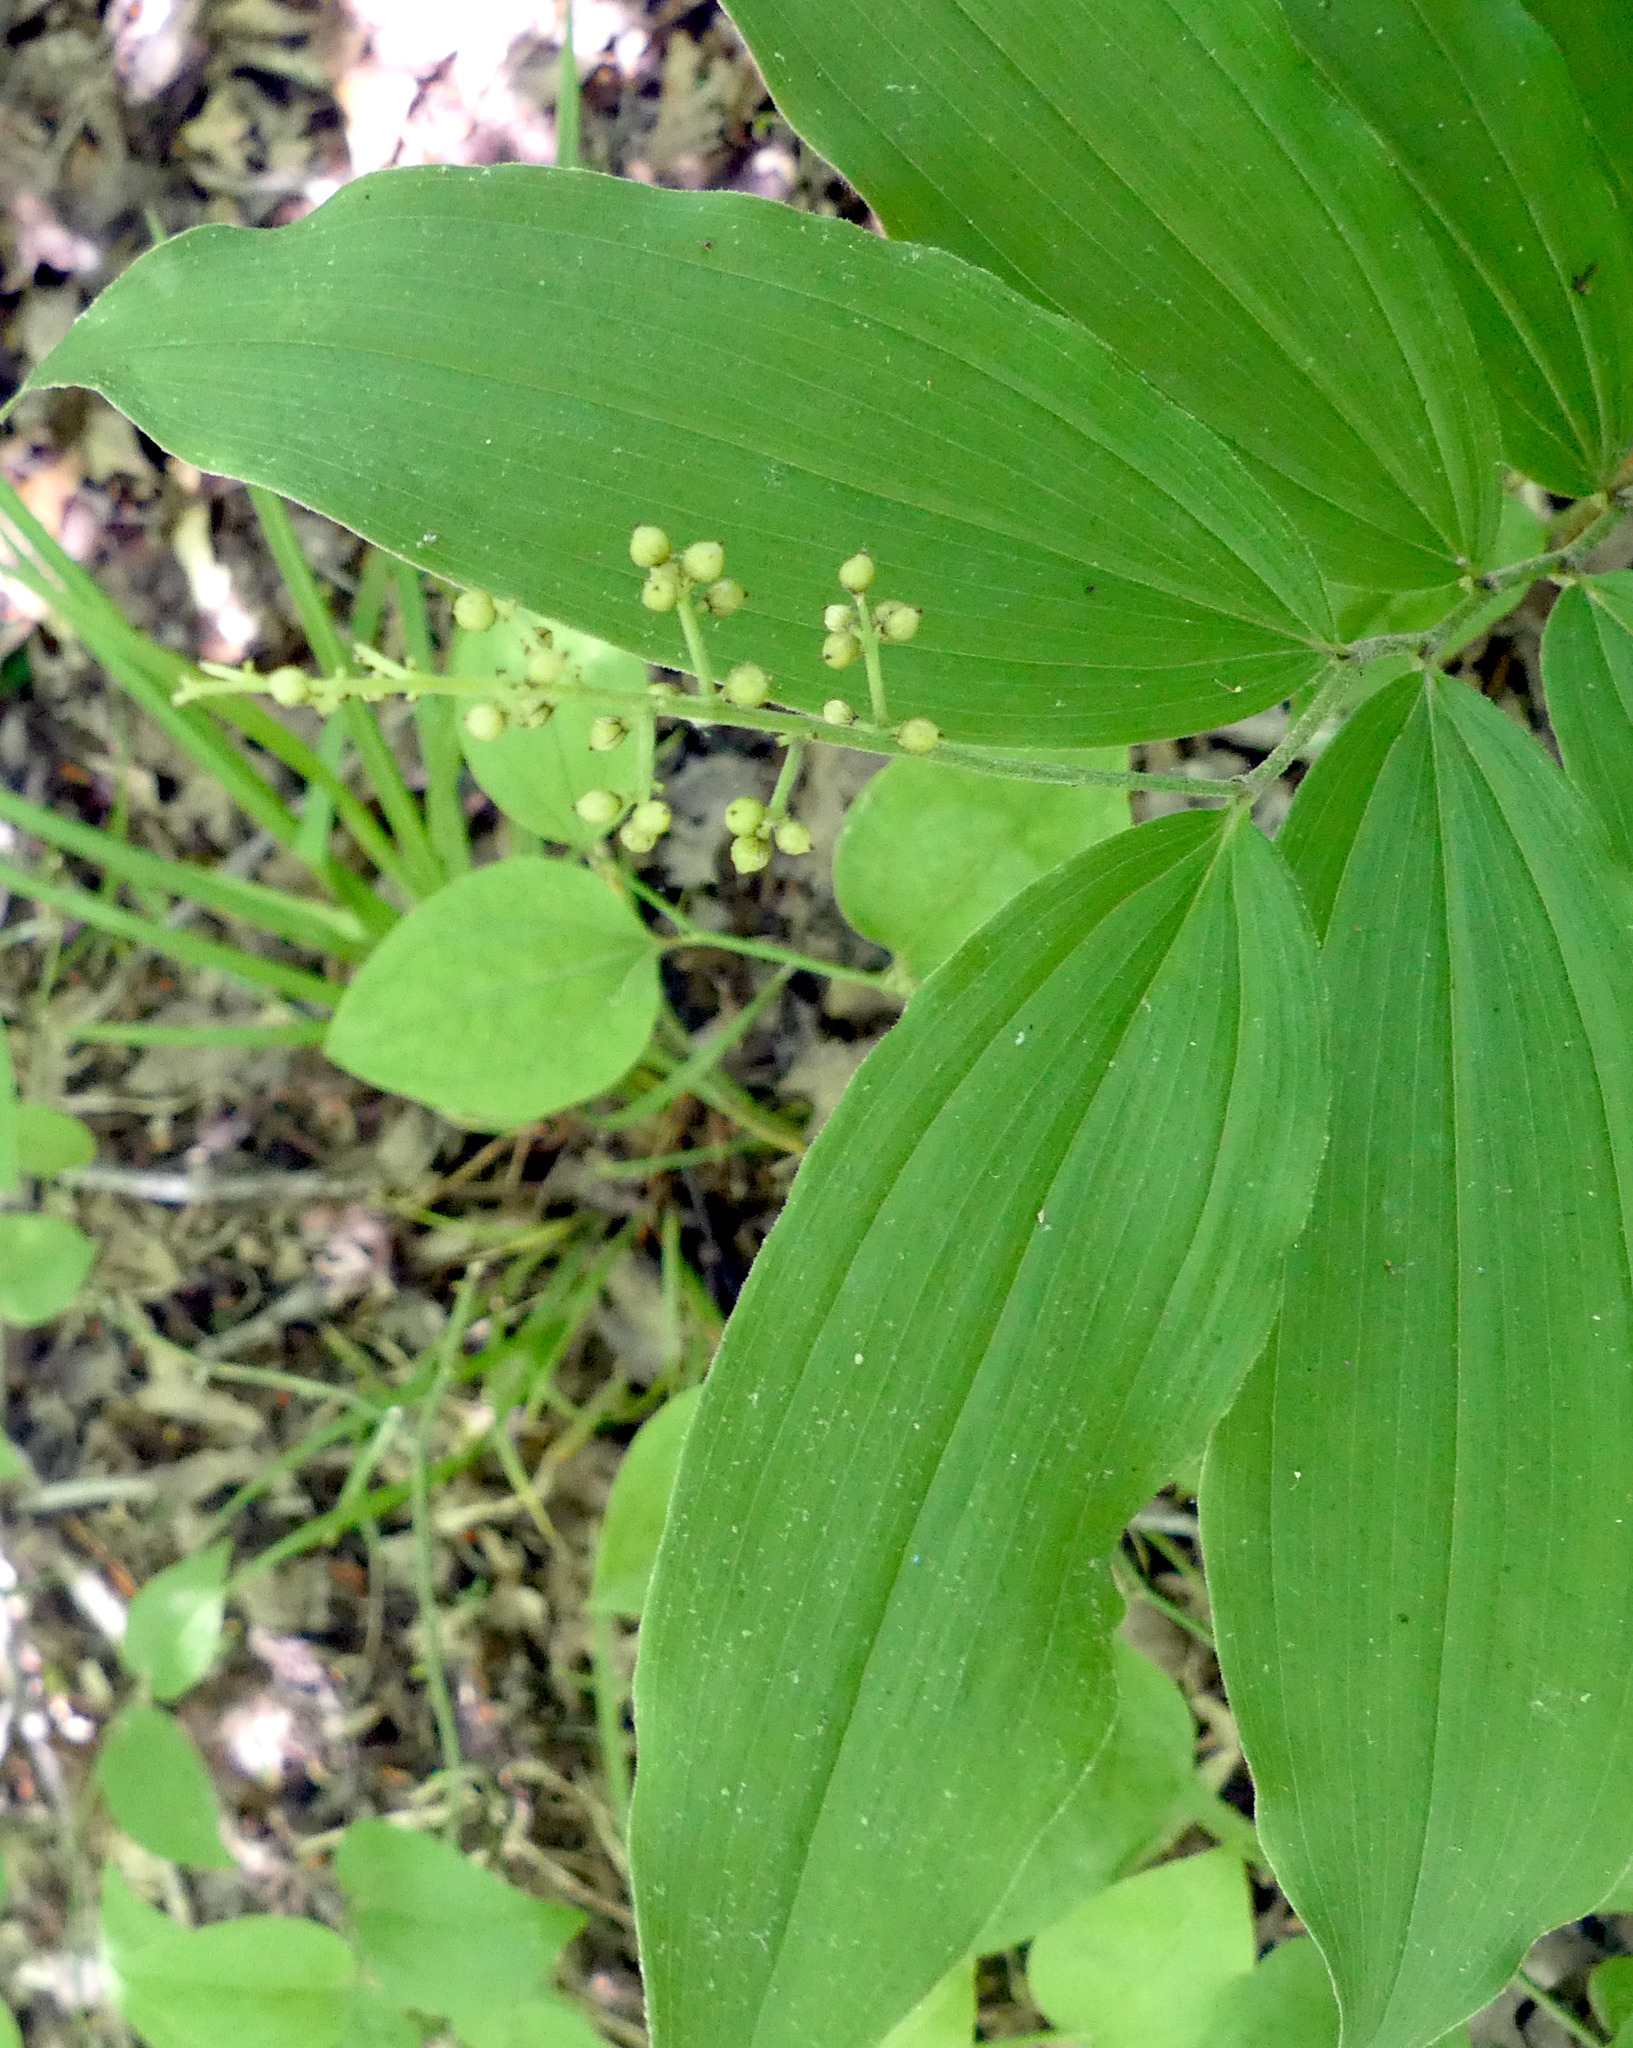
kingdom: Plantae
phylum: Tracheophyta
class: Liliopsida
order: Asparagales
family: Asparagaceae
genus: Maianthemum
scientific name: Maianthemum racemosum
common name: False spikenard
